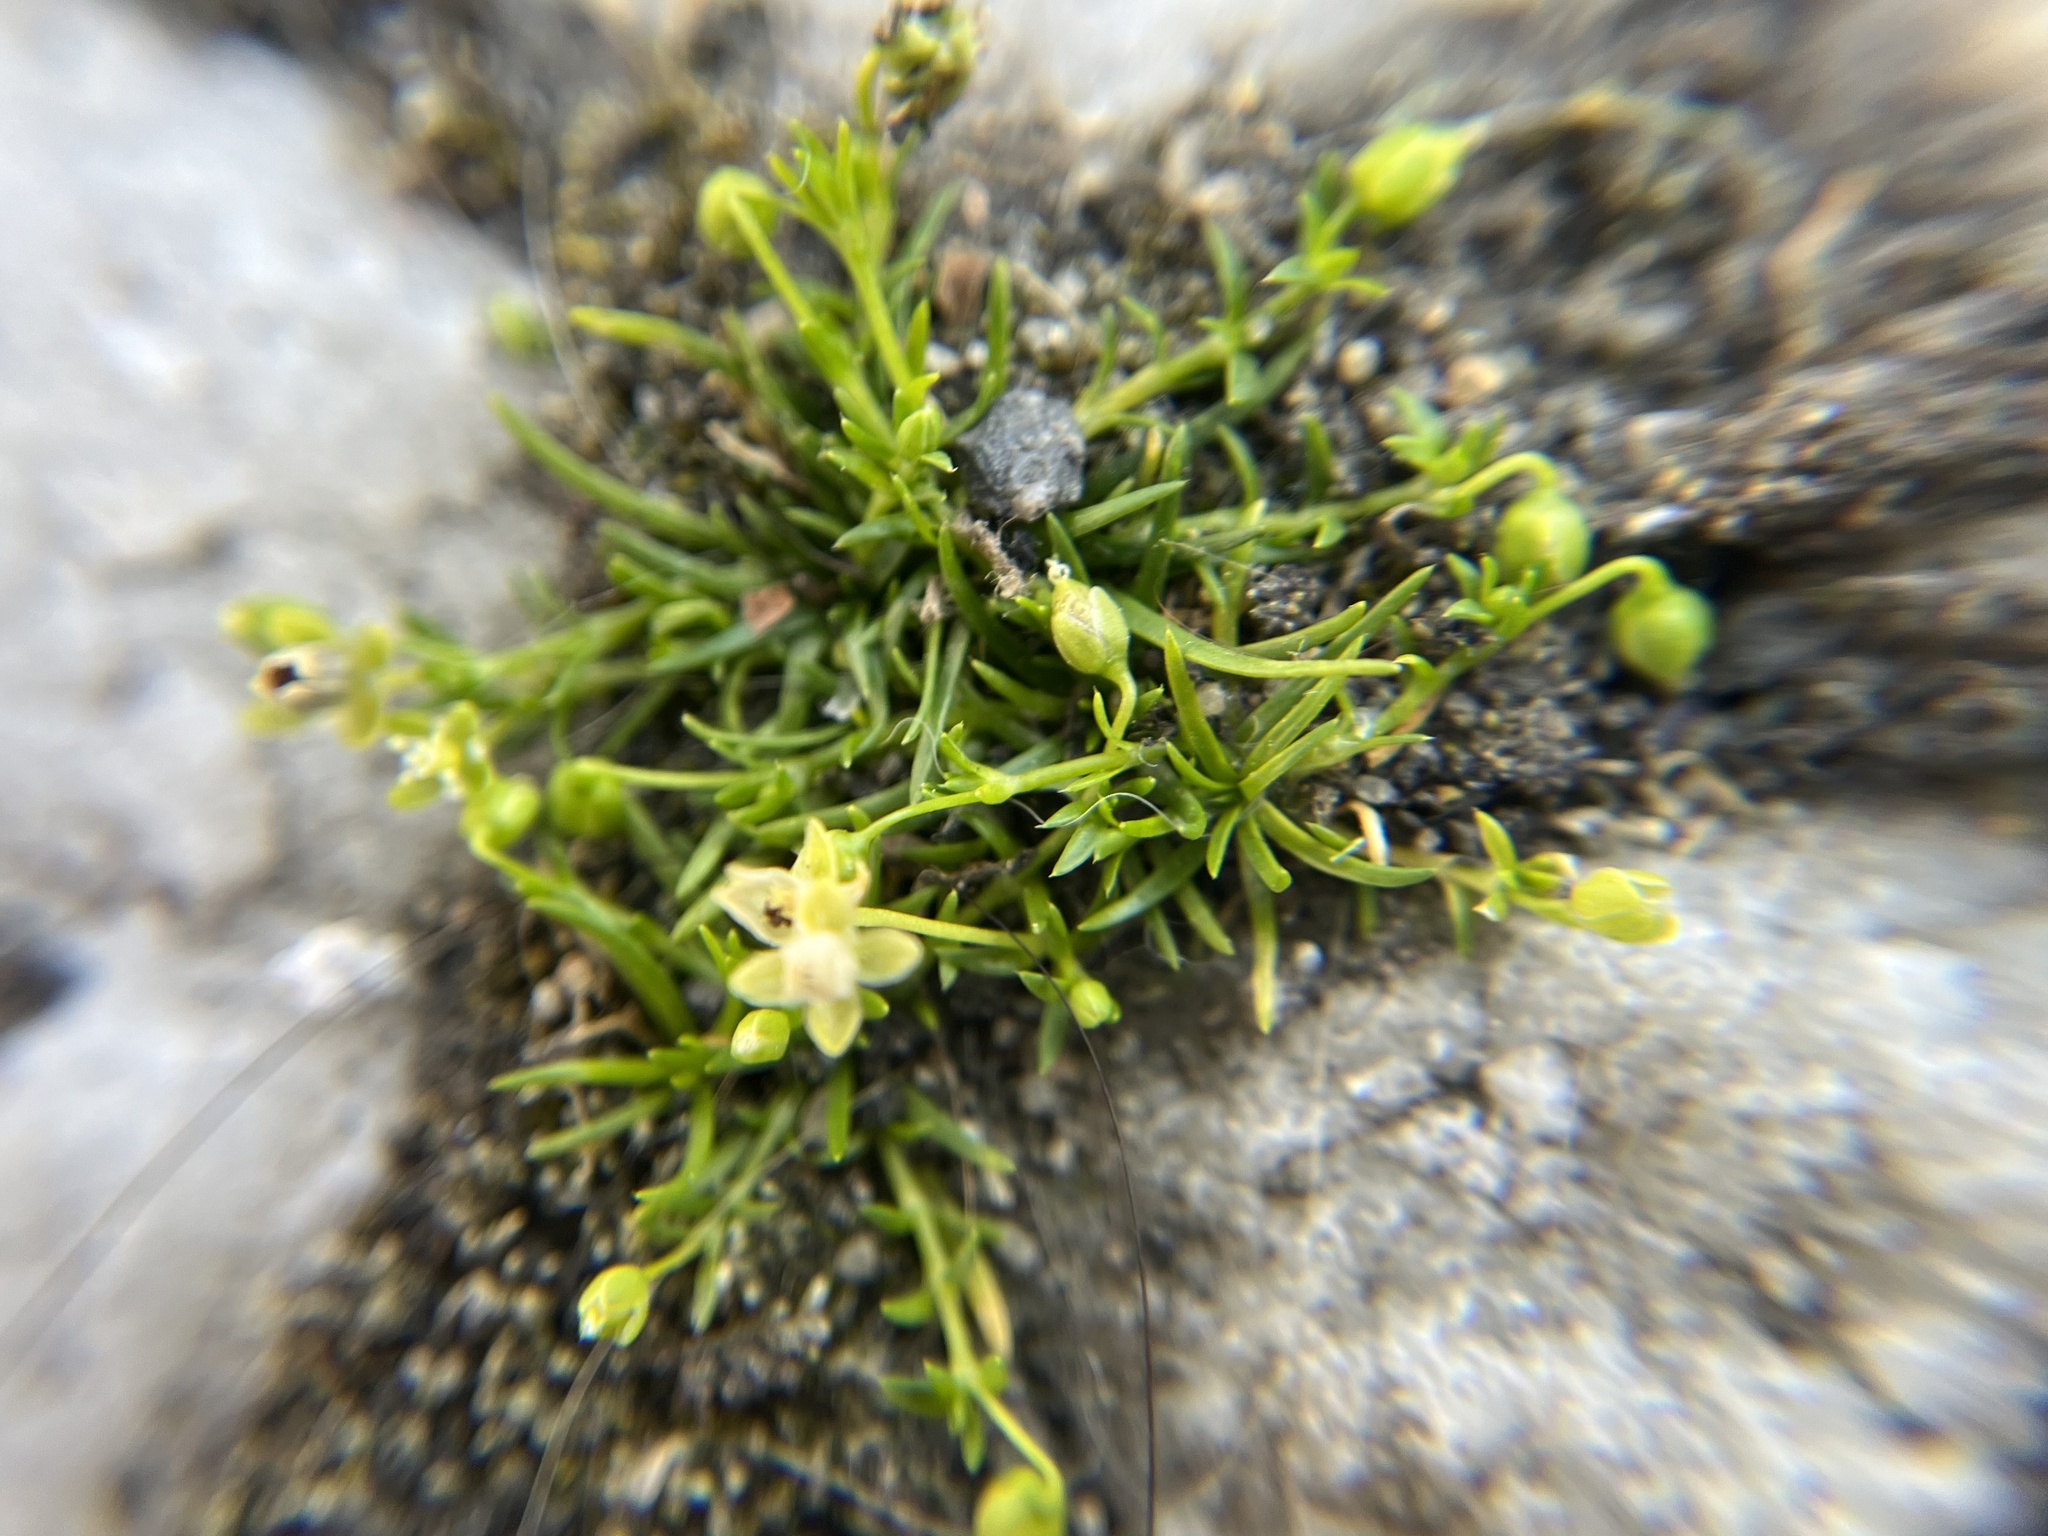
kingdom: Plantae
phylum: Tracheophyta
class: Magnoliopsida
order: Caryophyllales
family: Caryophyllaceae
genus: Sagina
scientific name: Sagina procumbens
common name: Procumbent pearlwort
